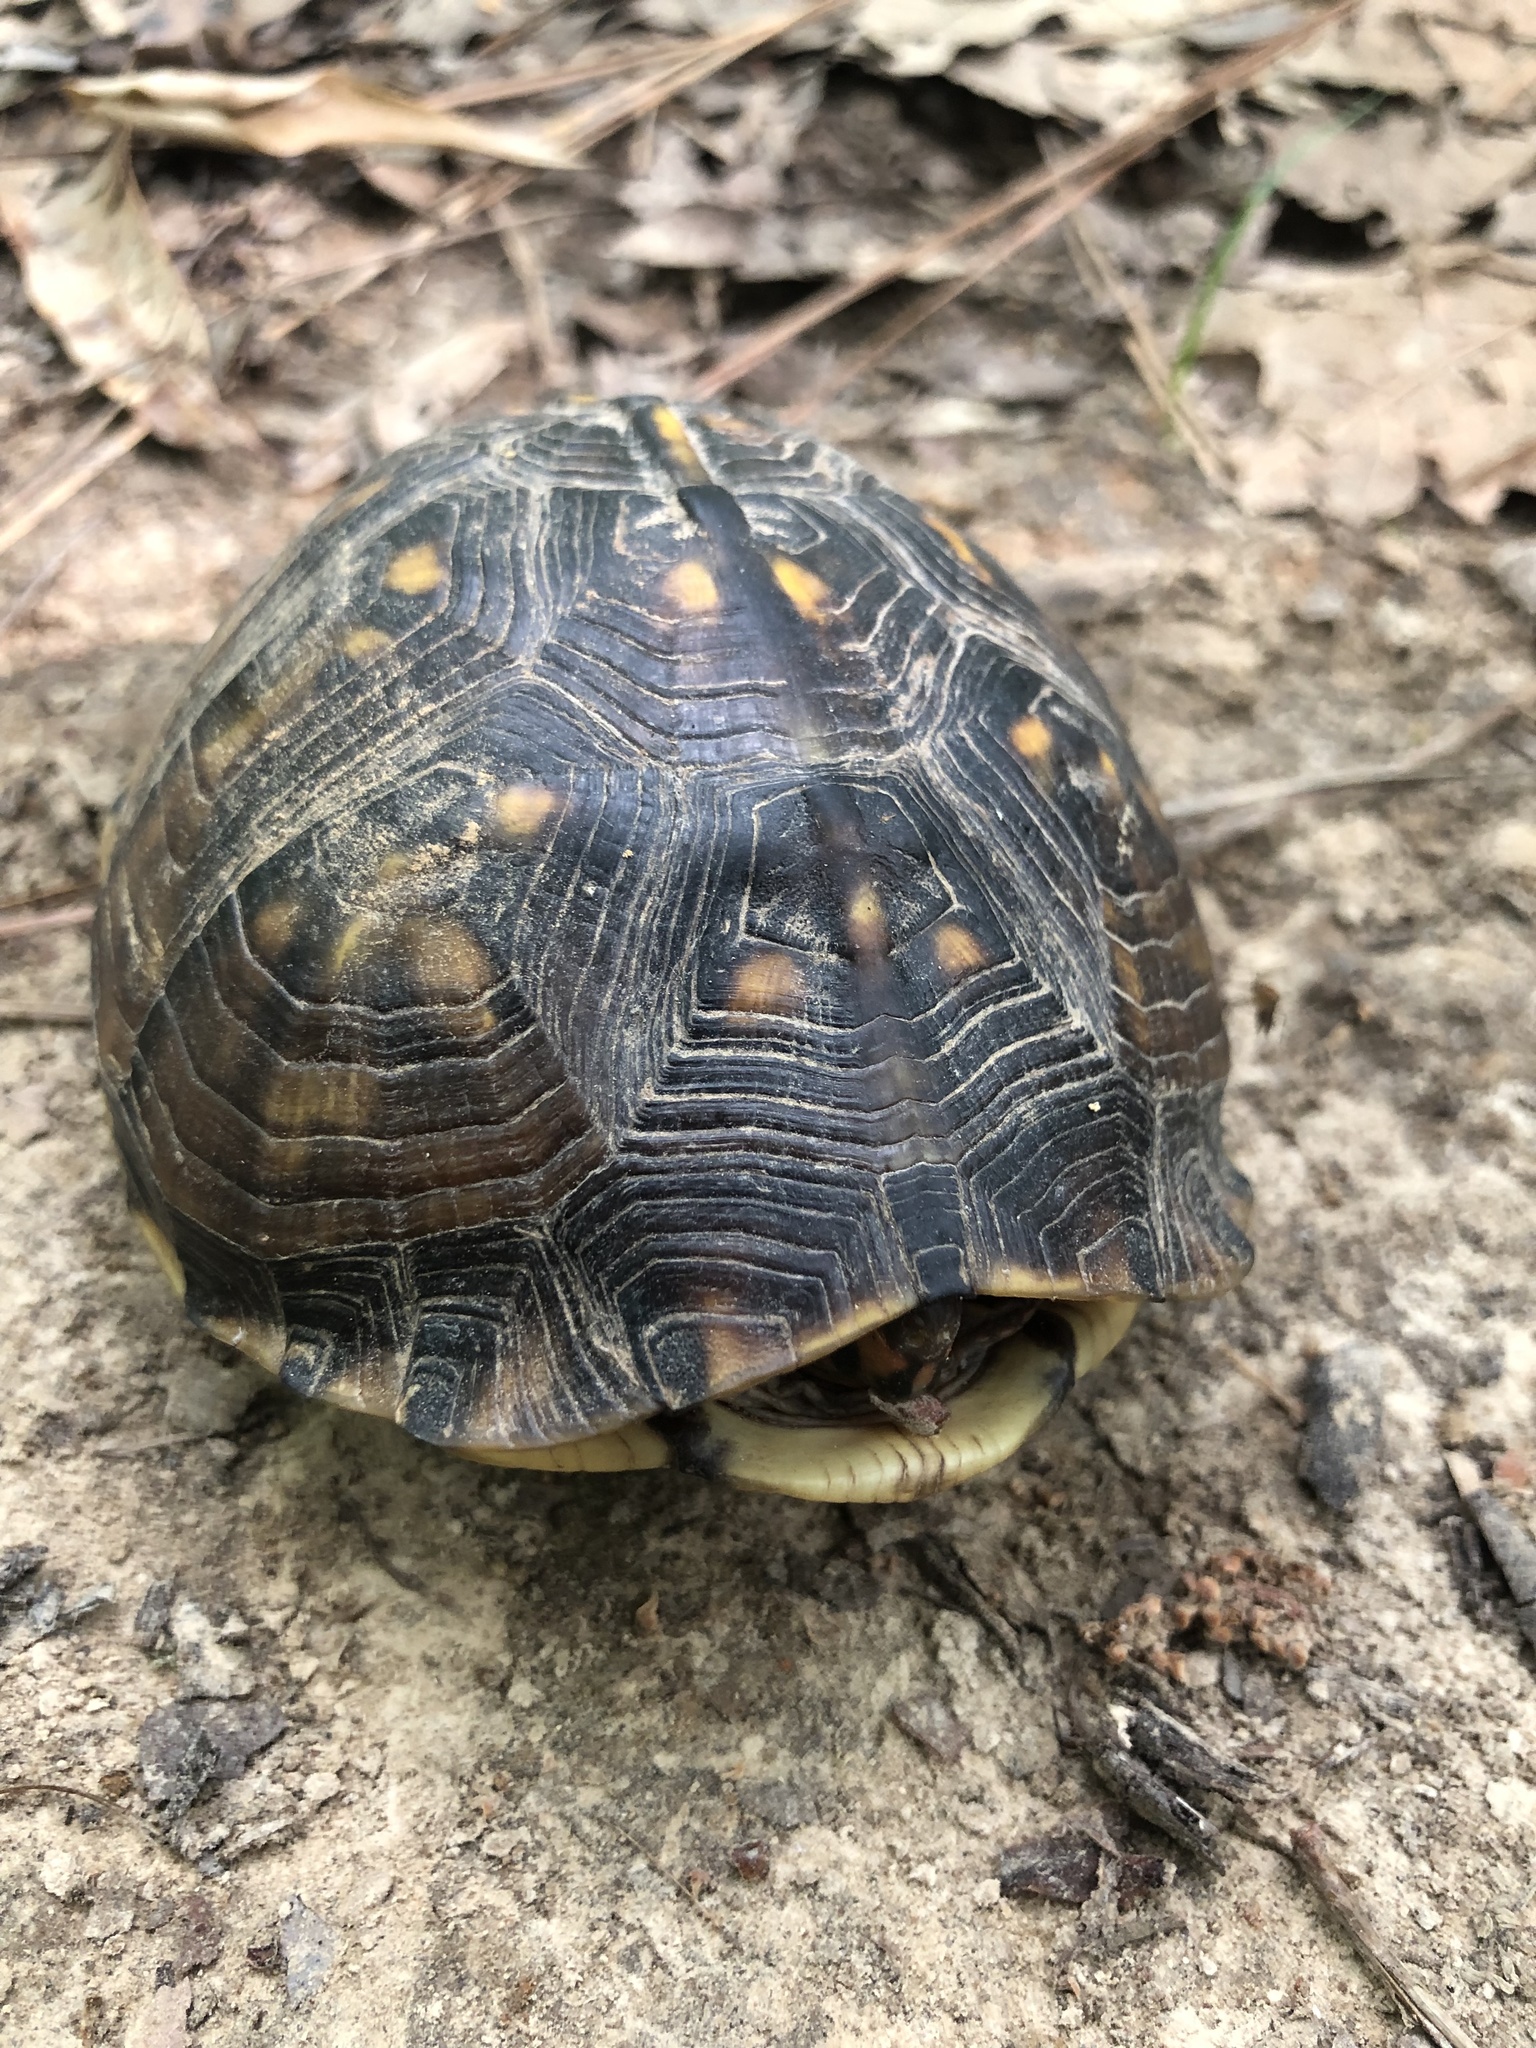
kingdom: Animalia
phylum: Chordata
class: Testudines
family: Emydidae
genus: Terrapene
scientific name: Terrapene carolina
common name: Common box turtle
